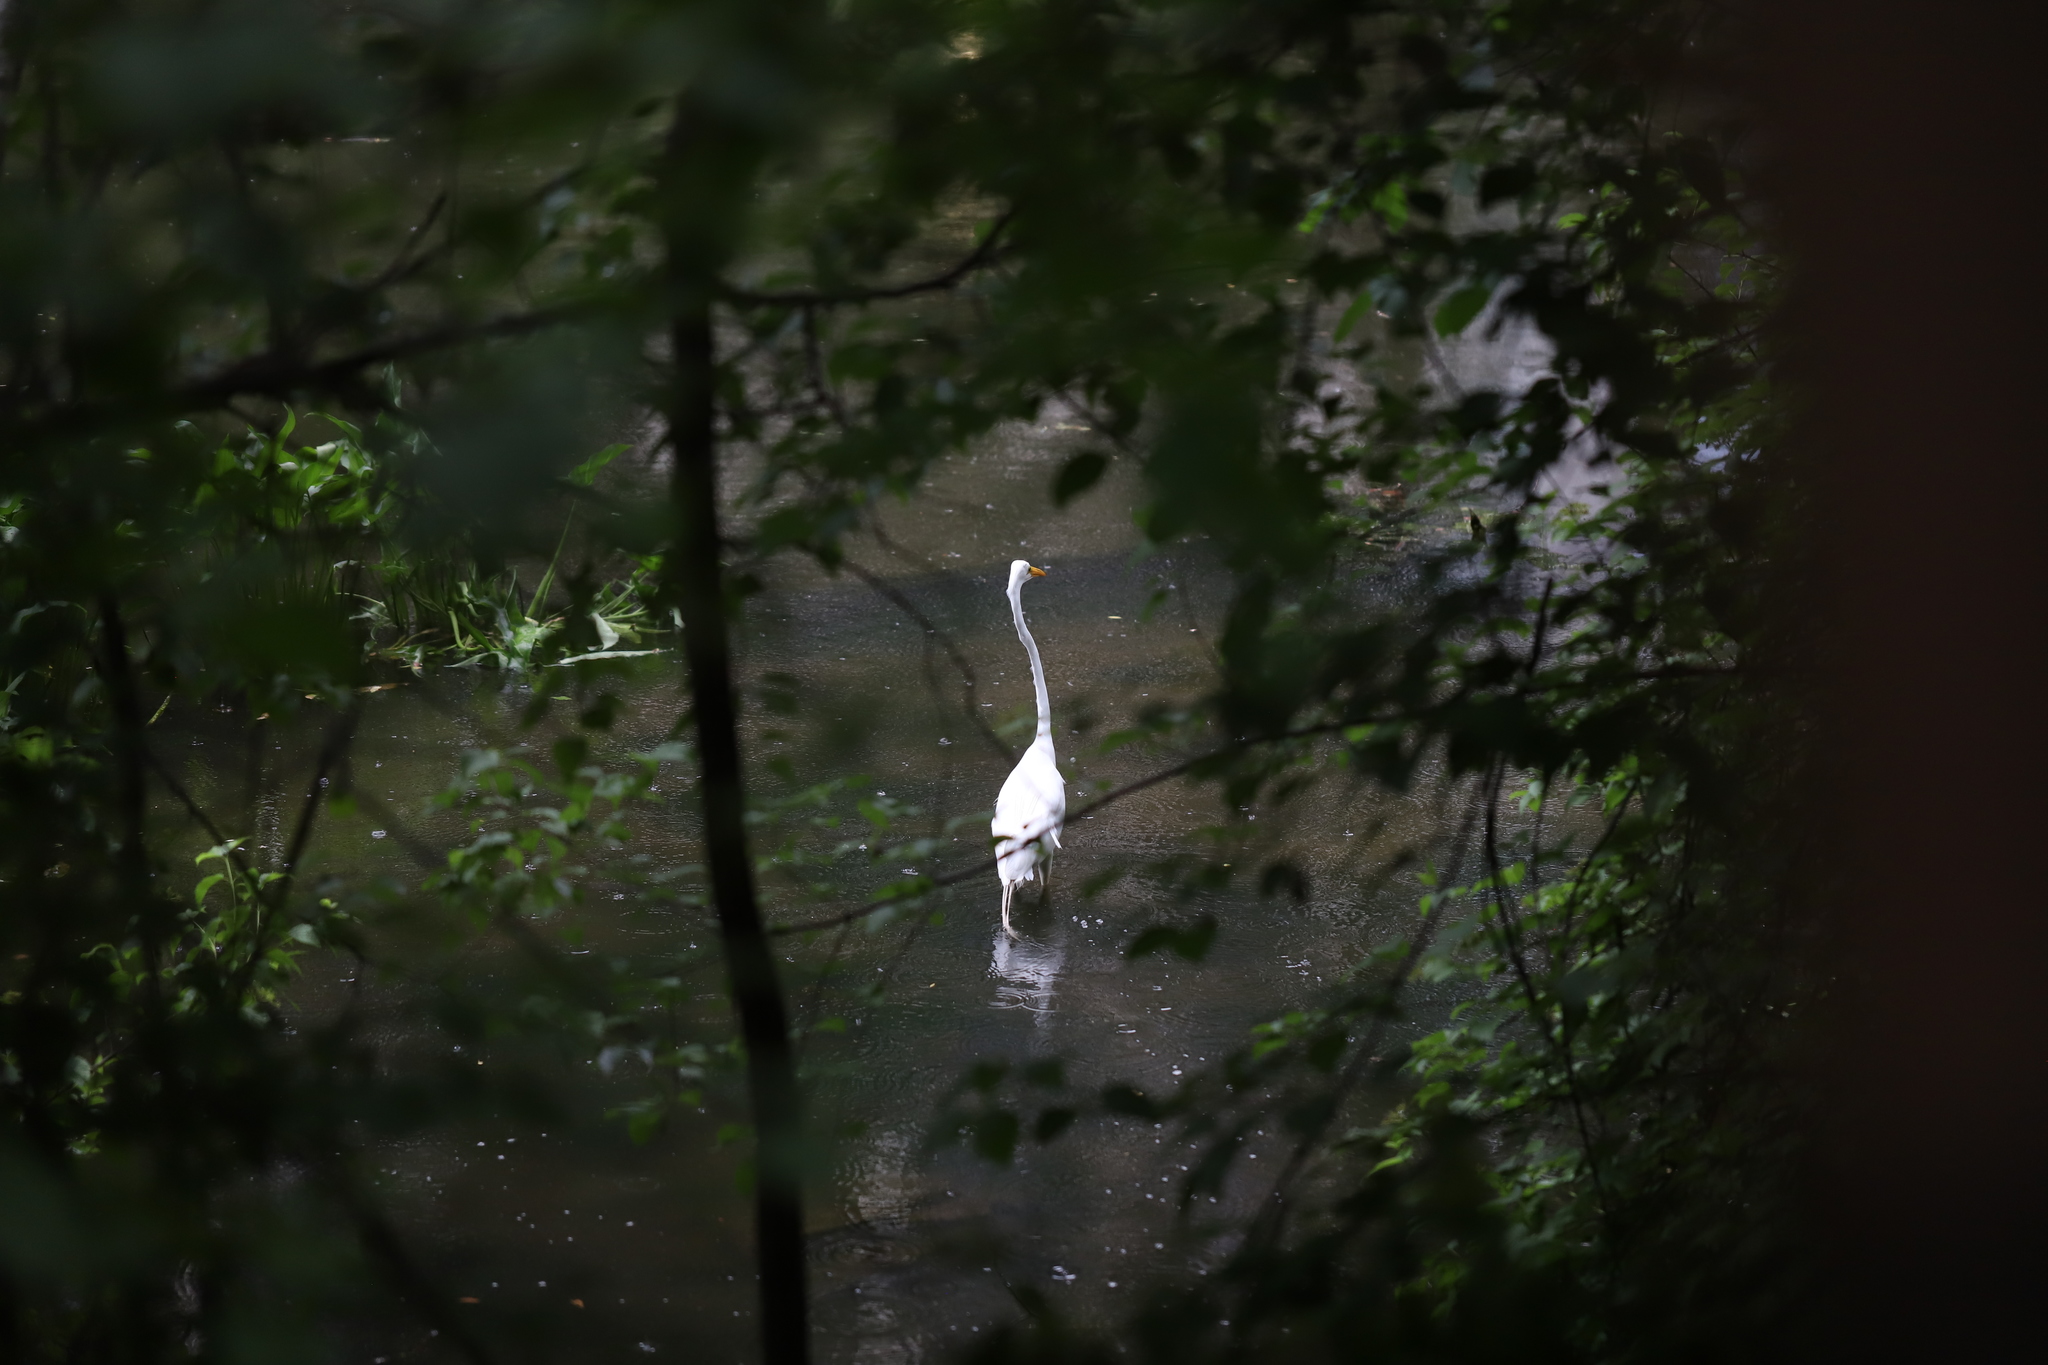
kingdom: Animalia
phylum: Chordata
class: Aves
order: Pelecaniformes
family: Ardeidae
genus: Ardea
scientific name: Ardea alba
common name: Great egret
